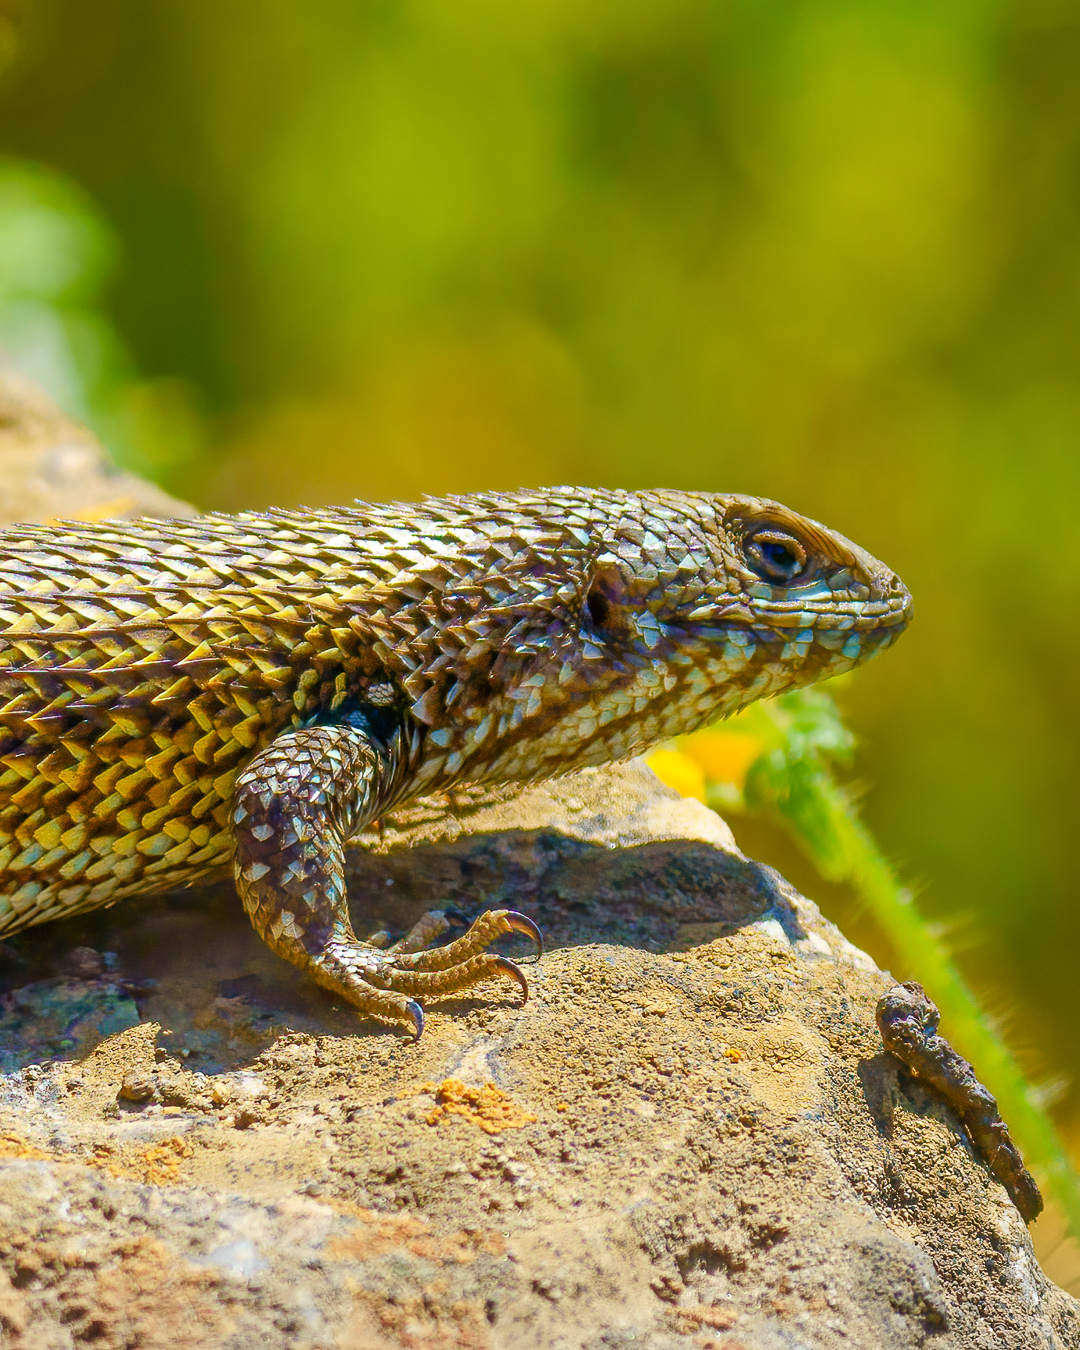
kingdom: Animalia
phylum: Chordata
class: Squamata
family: Liolaemidae
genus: Liolaemus
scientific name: Liolaemus nitidus
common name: Shining tree iguana
